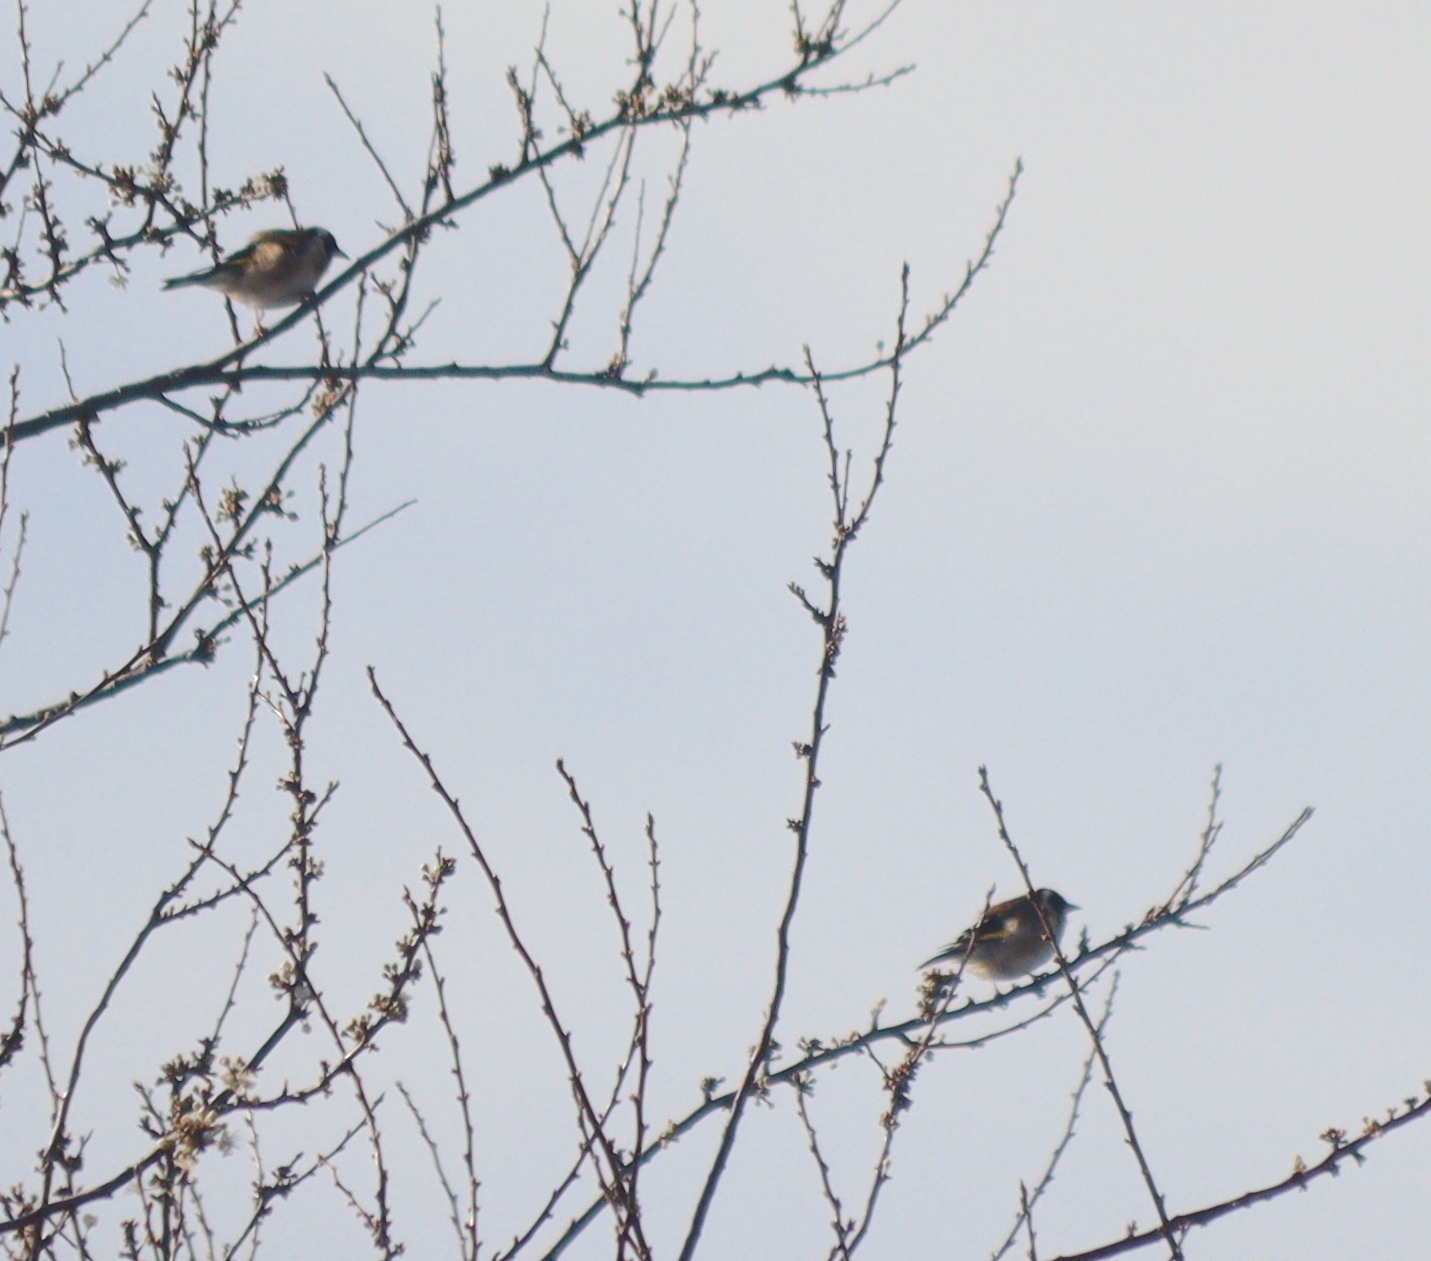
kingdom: Animalia
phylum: Chordata
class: Aves
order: Passeriformes
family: Fringillidae
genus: Carduelis
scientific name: Carduelis carduelis
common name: European goldfinch
